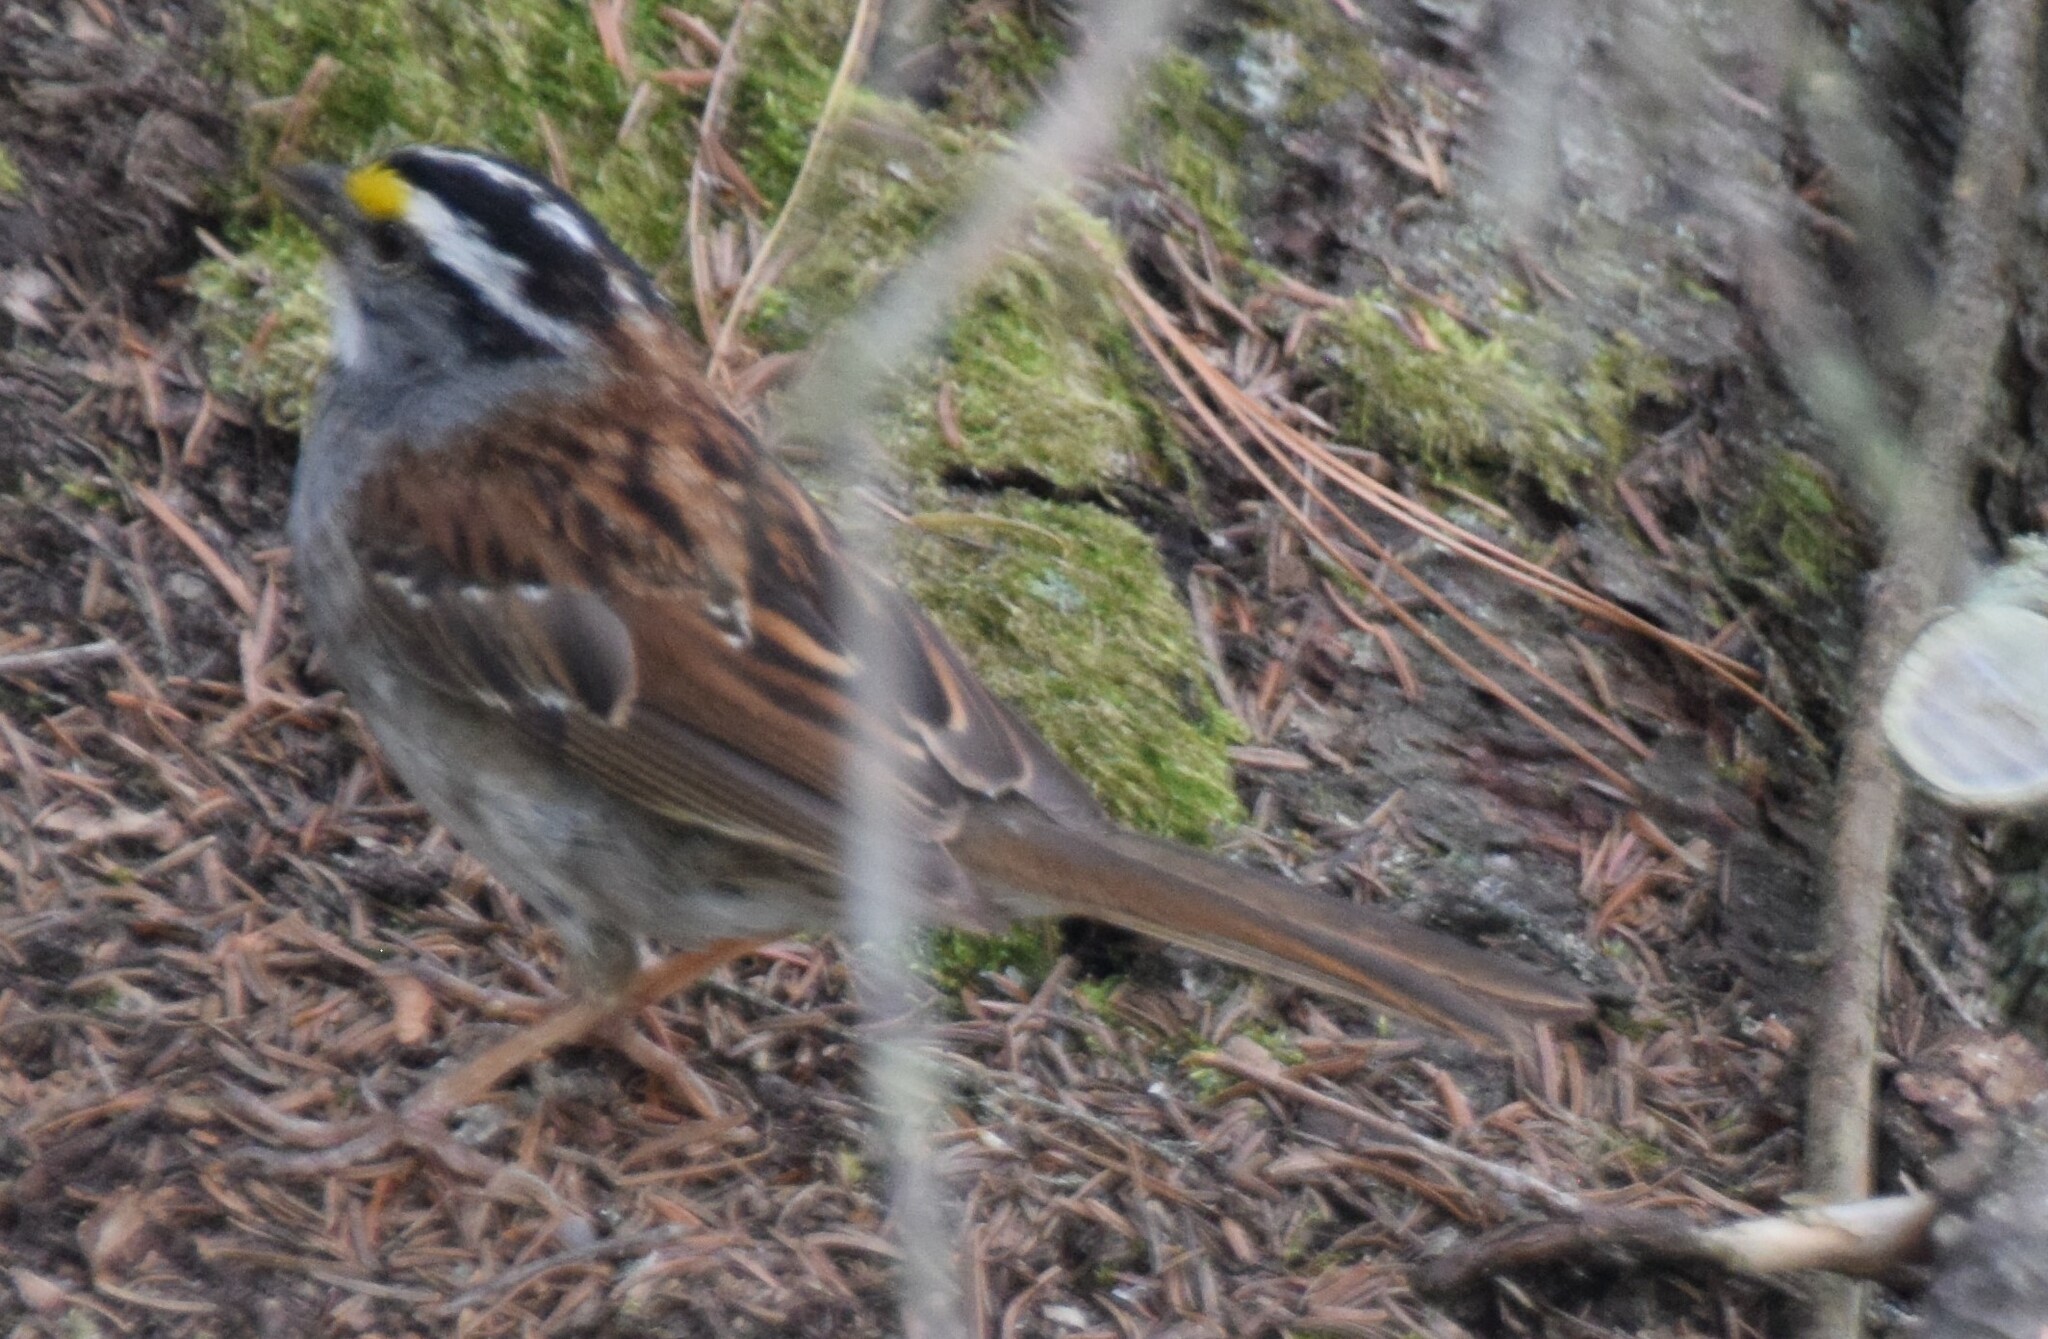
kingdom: Animalia
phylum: Chordata
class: Aves
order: Passeriformes
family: Passerellidae
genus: Zonotrichia
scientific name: Zonotrichia albicollis
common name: White-throated sparrow
